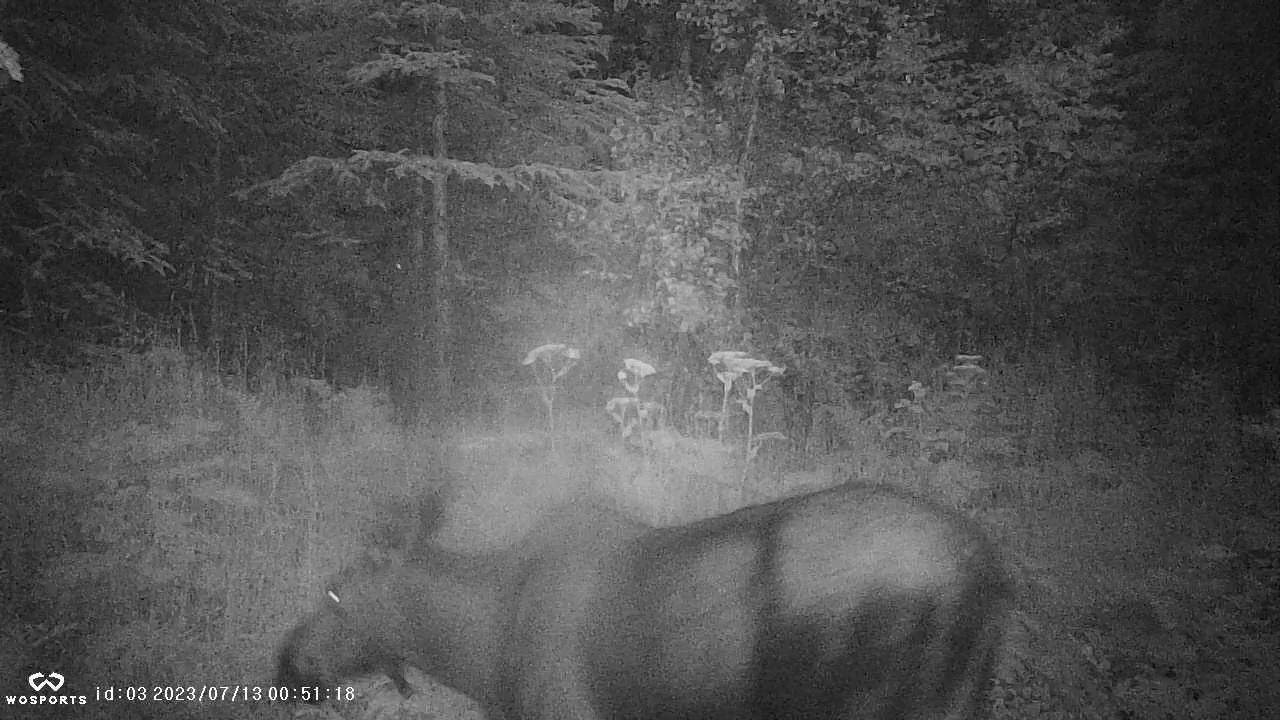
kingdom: Animalia
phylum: Chordata
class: Mammalia
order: Artiodactyla
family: Cervidae
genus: Alces
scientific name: Alces alces
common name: Moose
